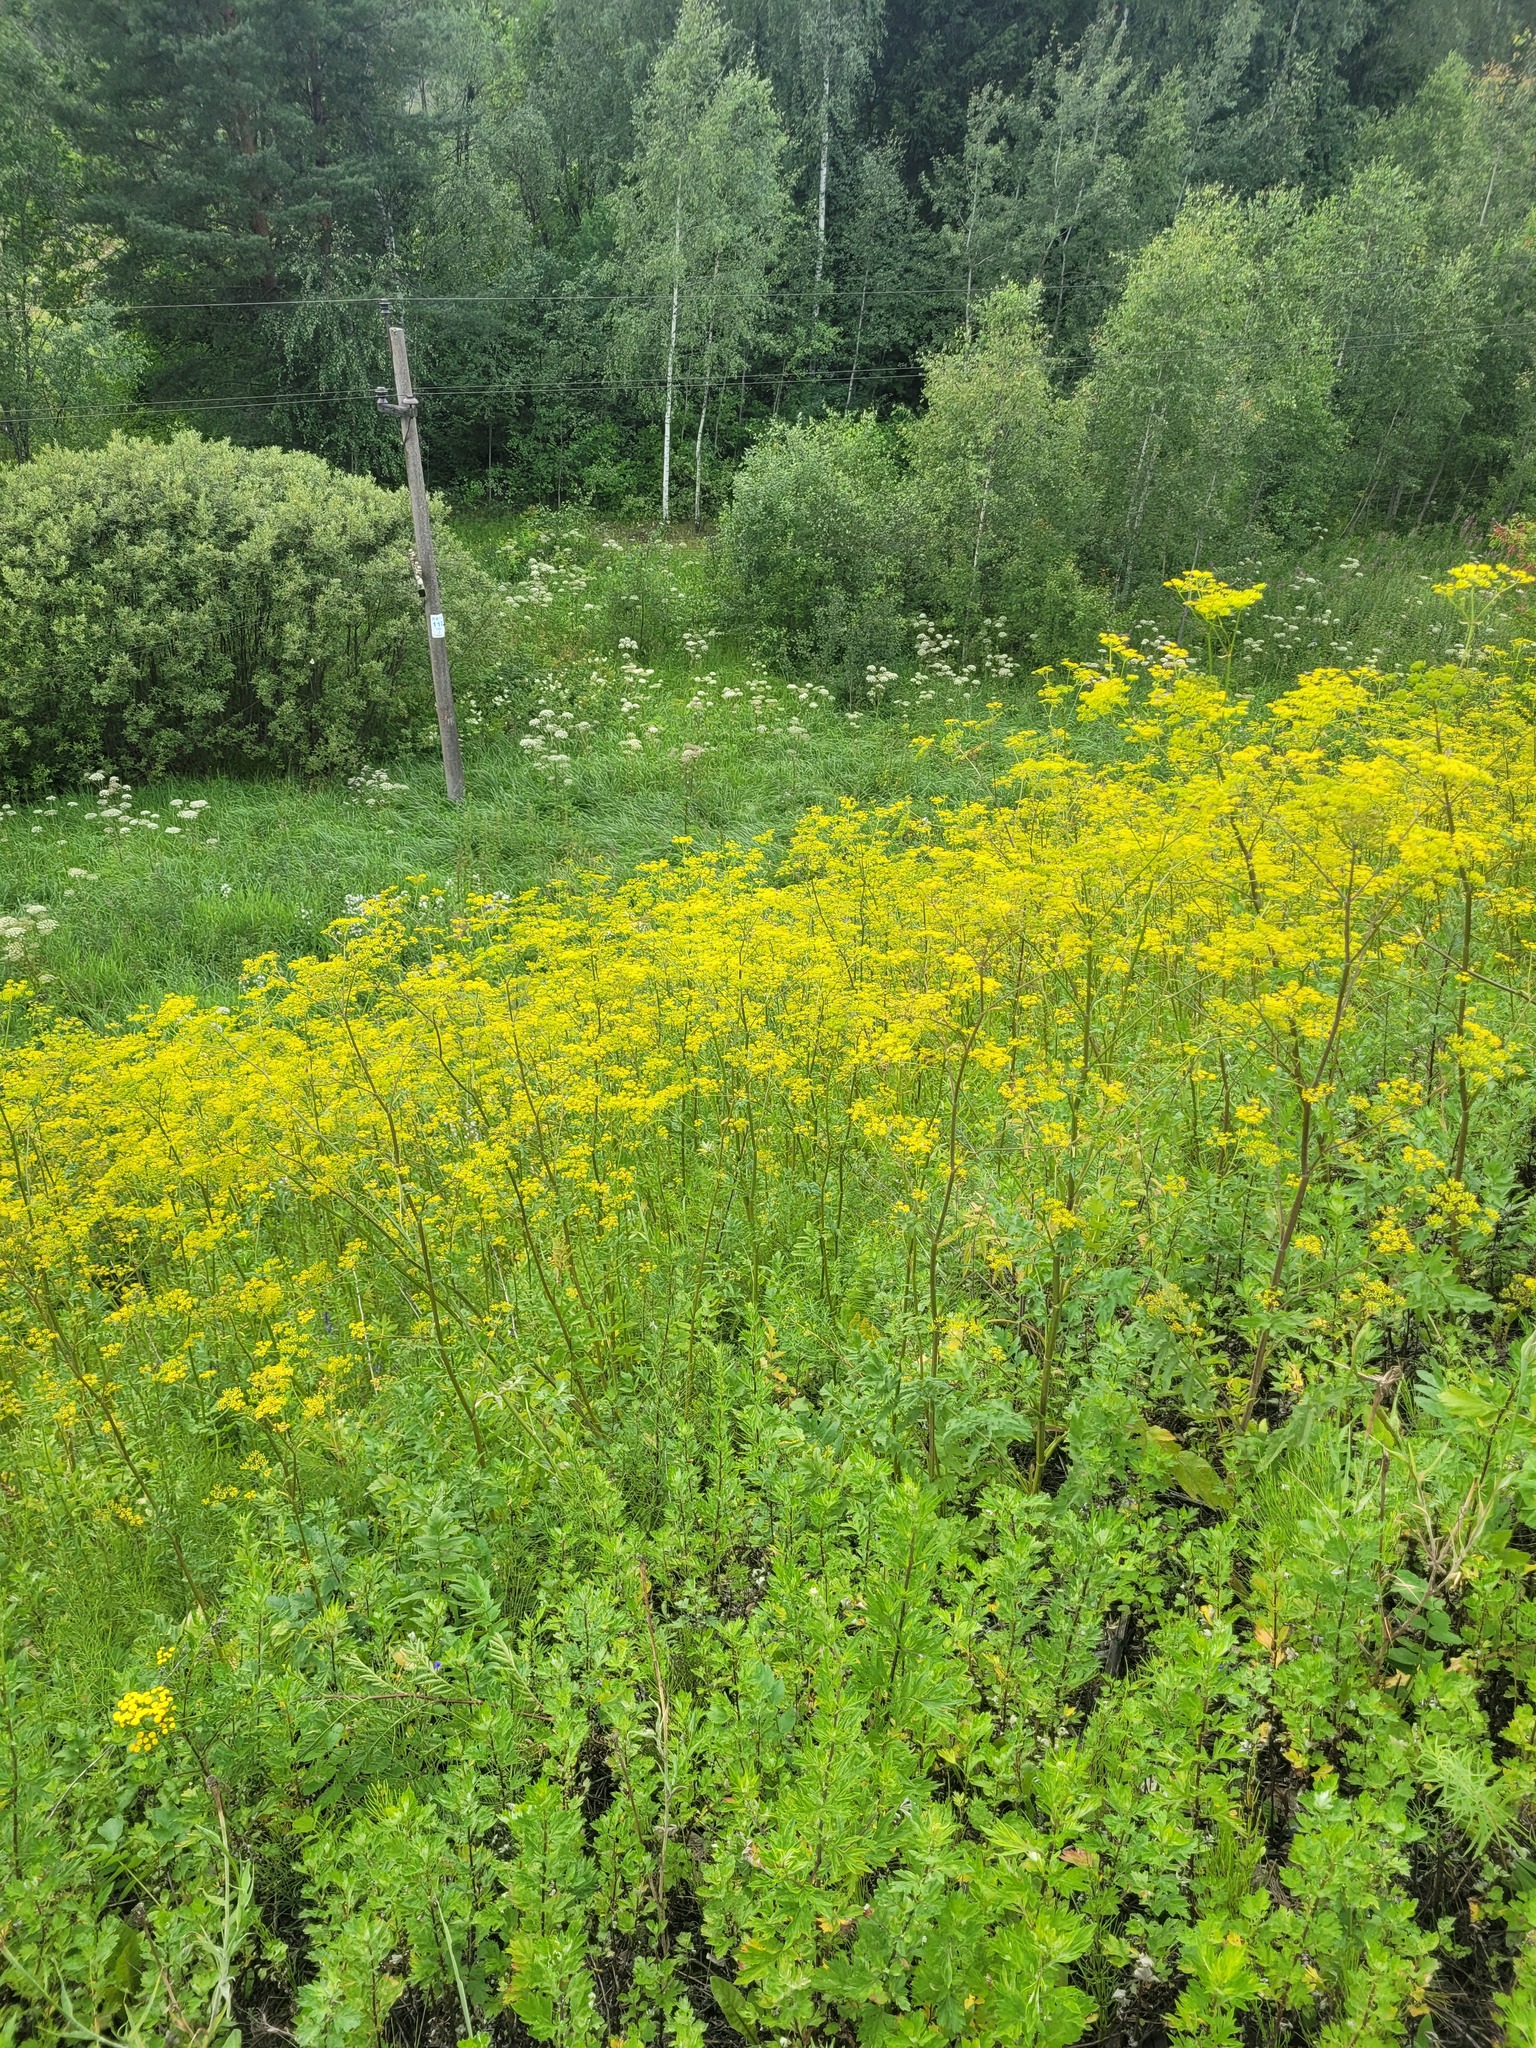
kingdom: Plantae
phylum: Tracheophyta
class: Magnoliopsida
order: Apiales
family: Apiaceae
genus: Pastinaca
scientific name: Pastinaca sativa
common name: Wild parsnip
